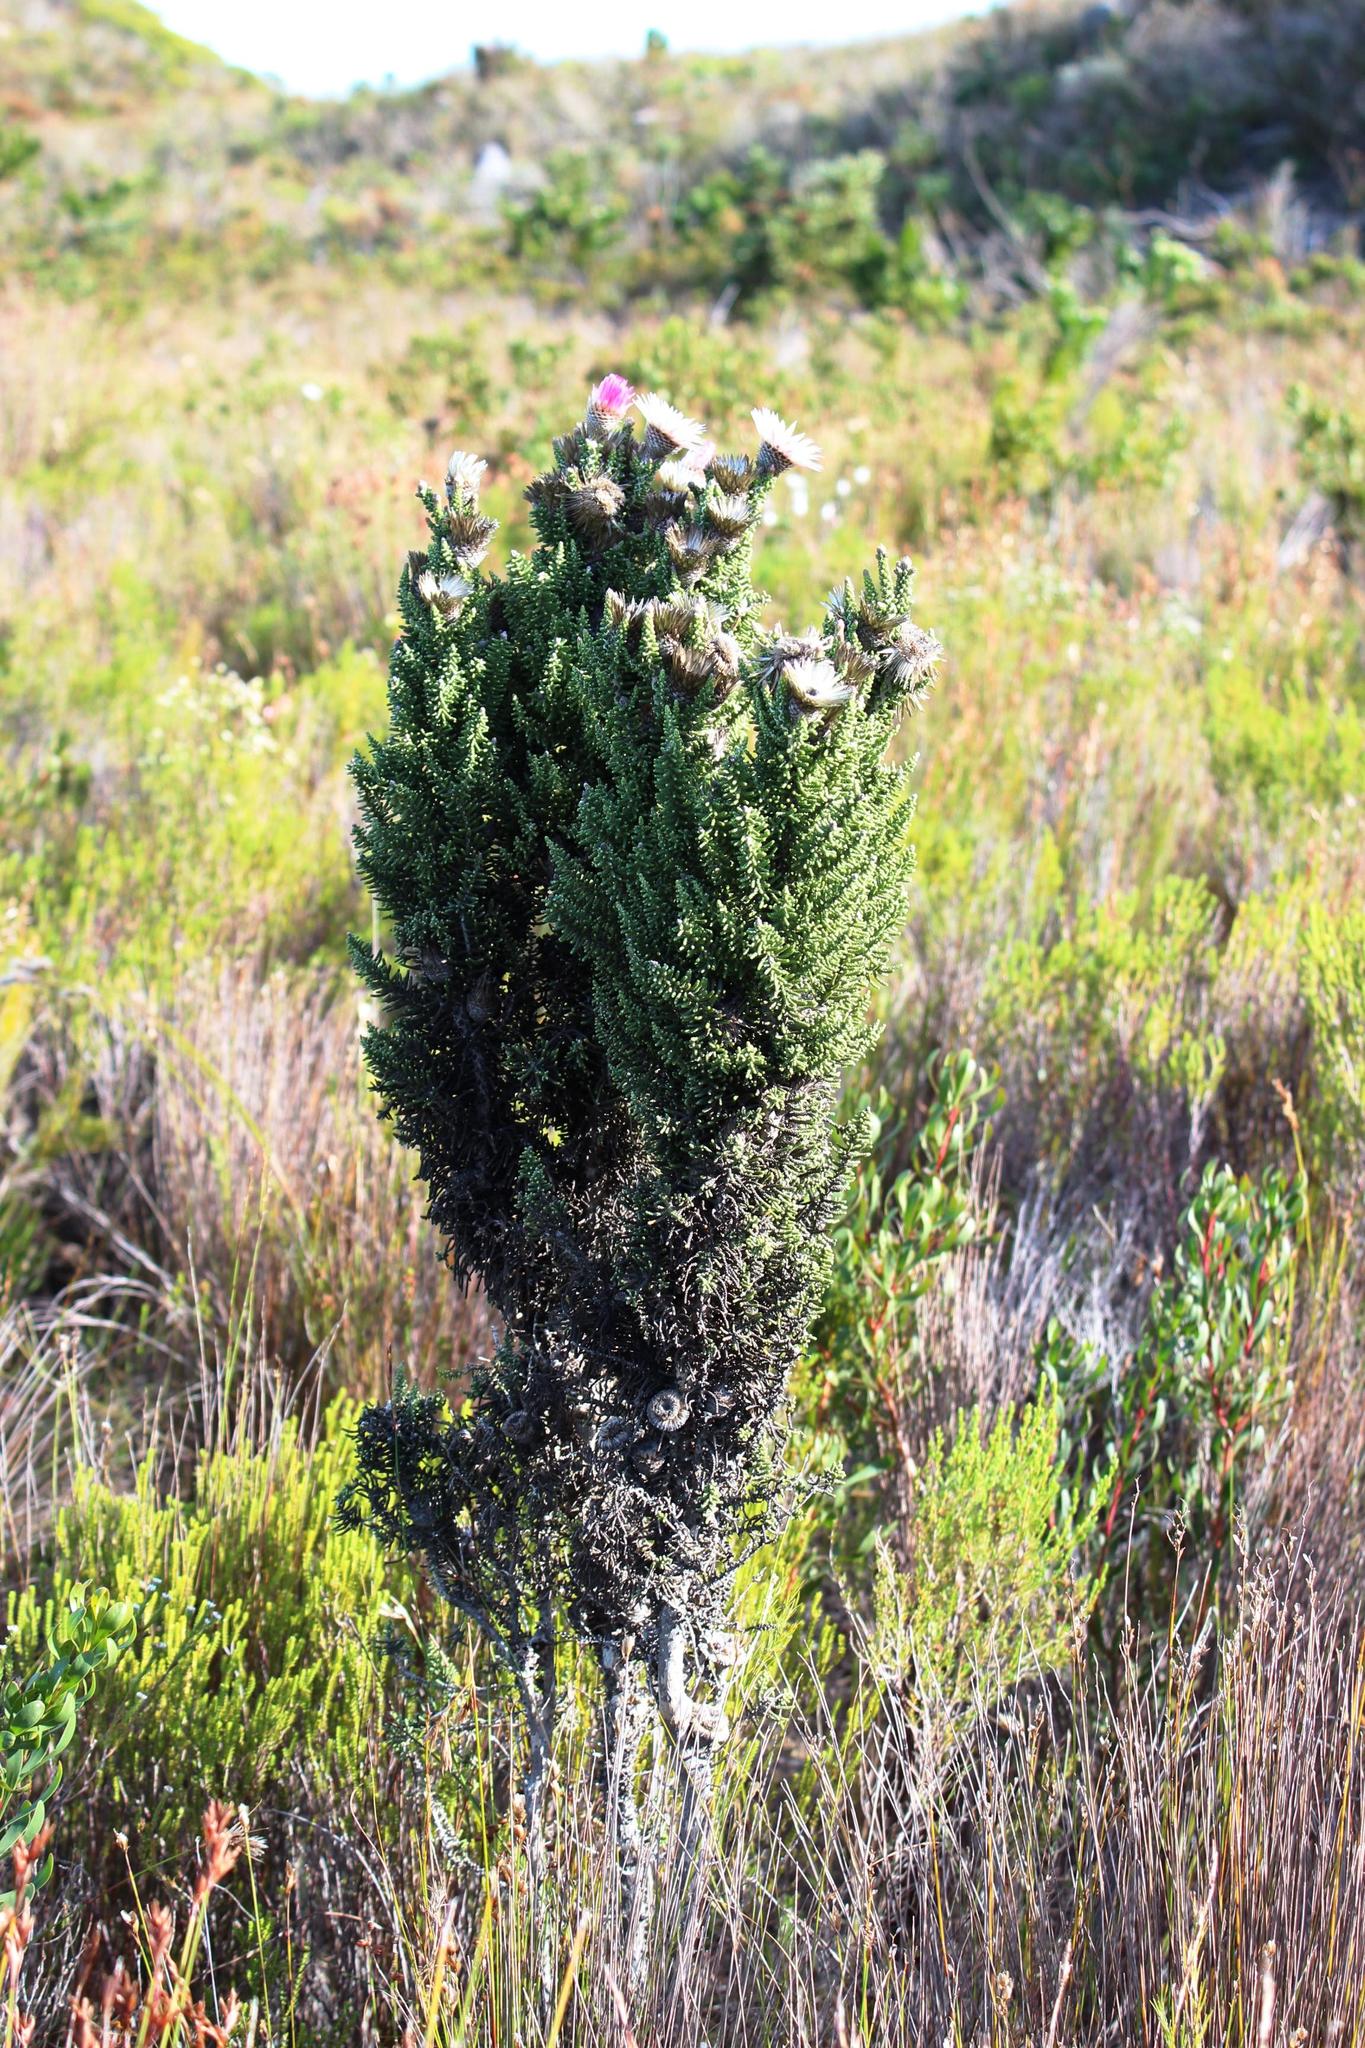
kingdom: Plantae
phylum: Tracheophyta
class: Magnoliopsida
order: Asterales
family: Asteraceae
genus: Phaenocoma
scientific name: Phaenocoma prolifera
